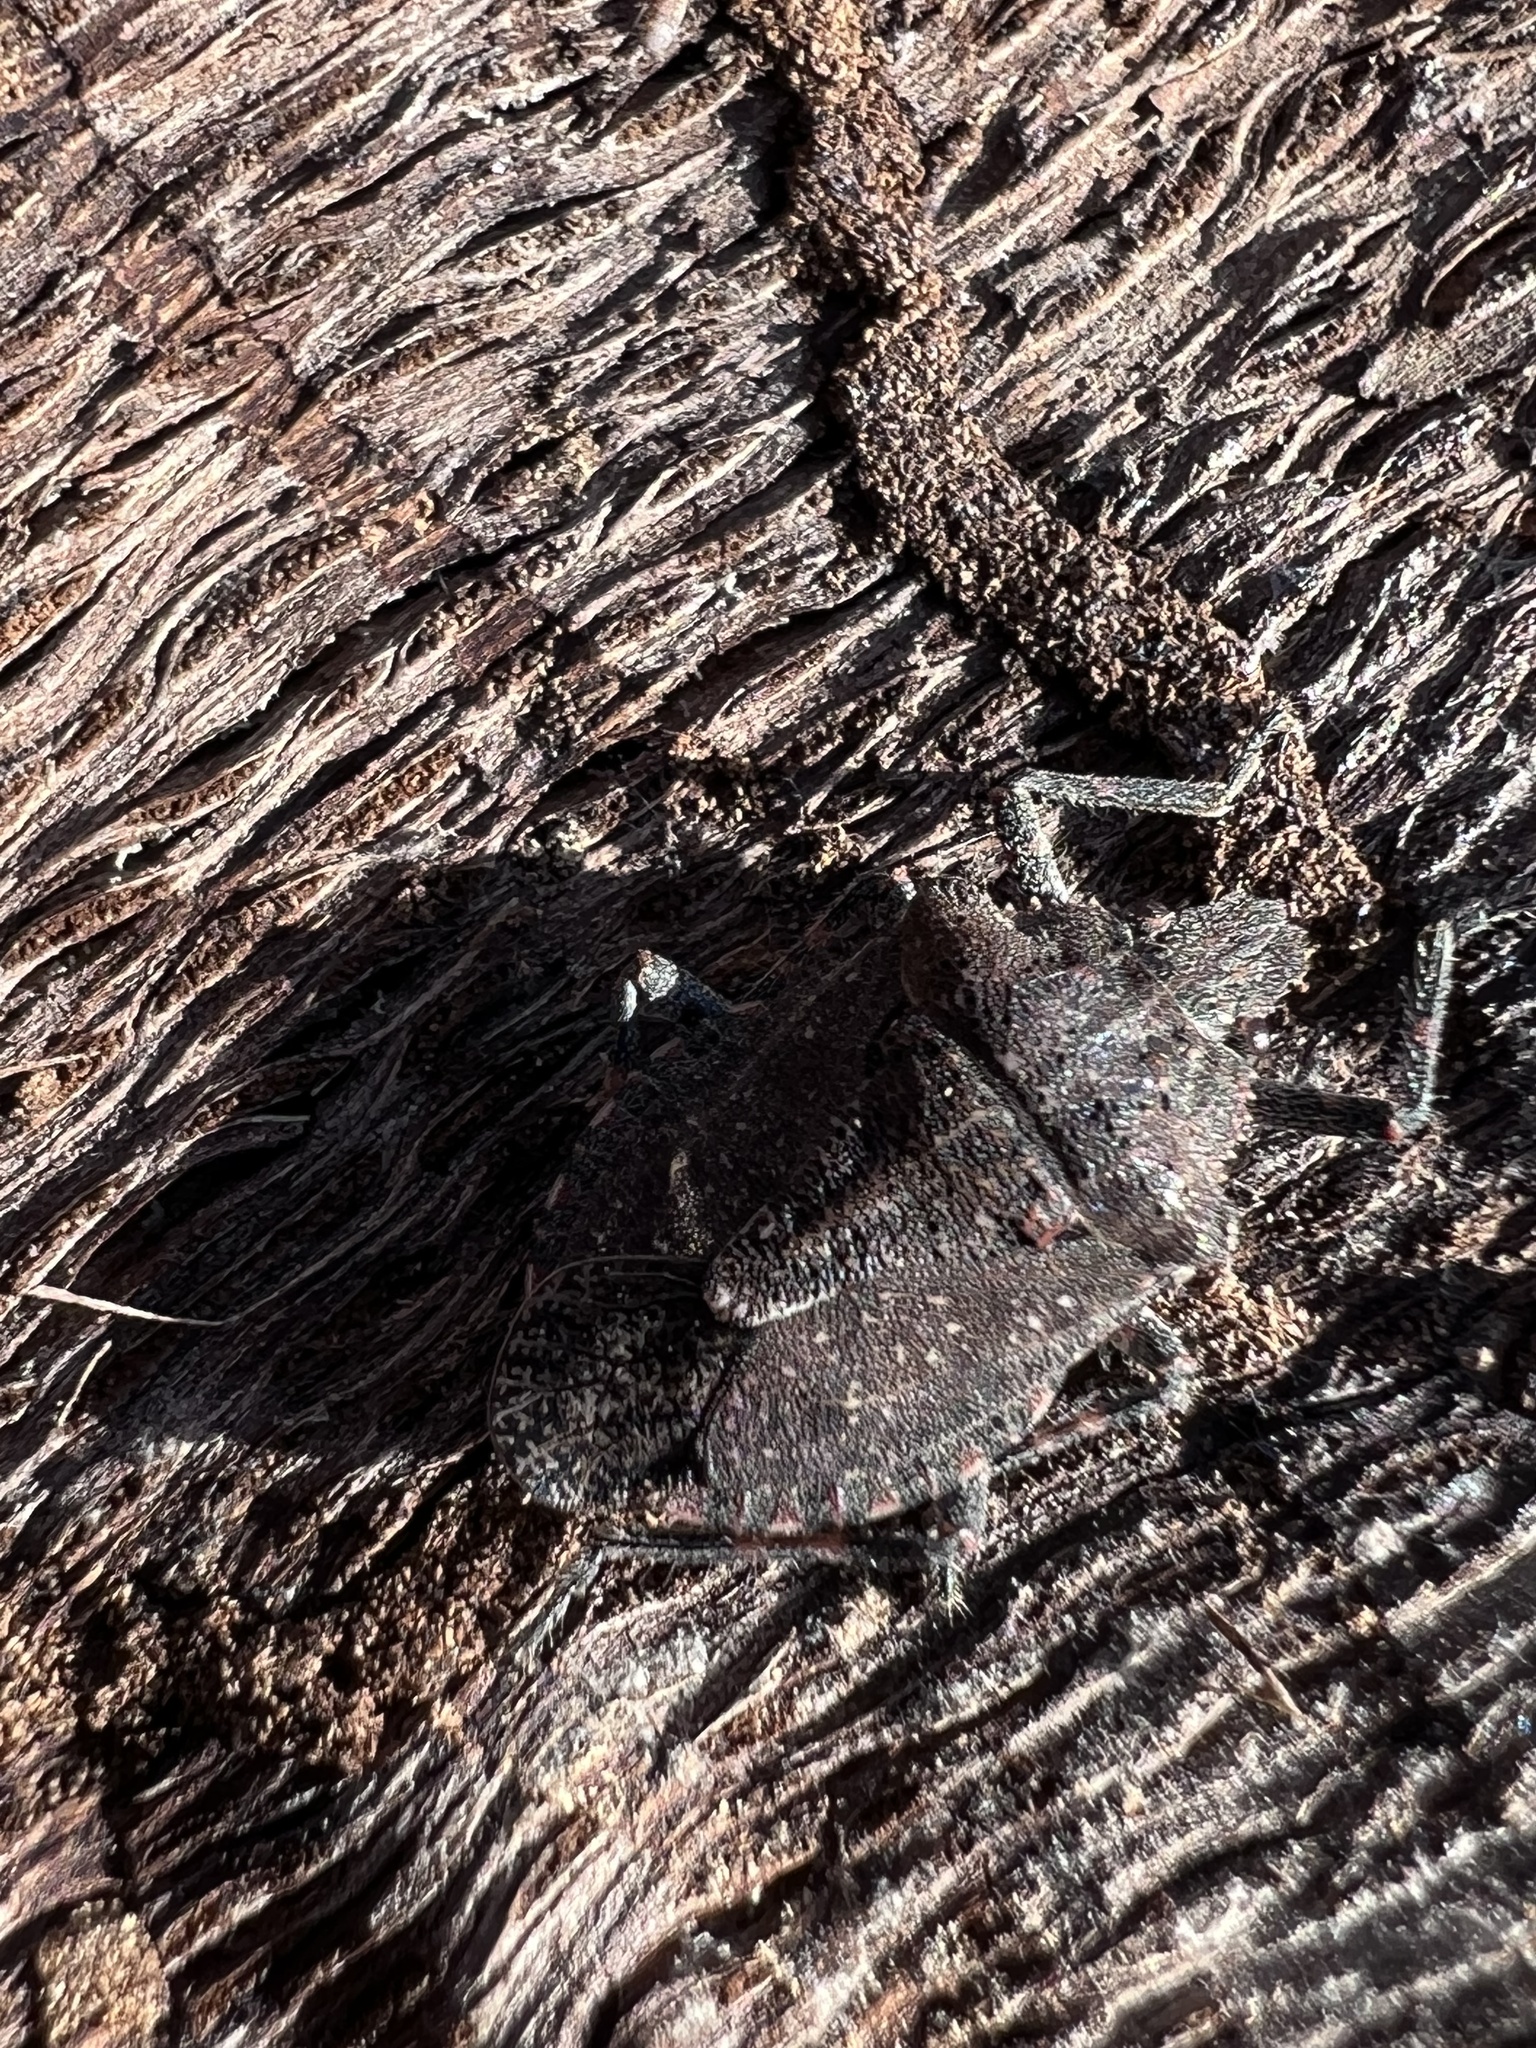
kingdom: Animalia
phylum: Arthropoda
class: Insecta
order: Hemiptera
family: Pentatomidae
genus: Brochymena
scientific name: Brochymena quadripustulata
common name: Four-humped stink bug
